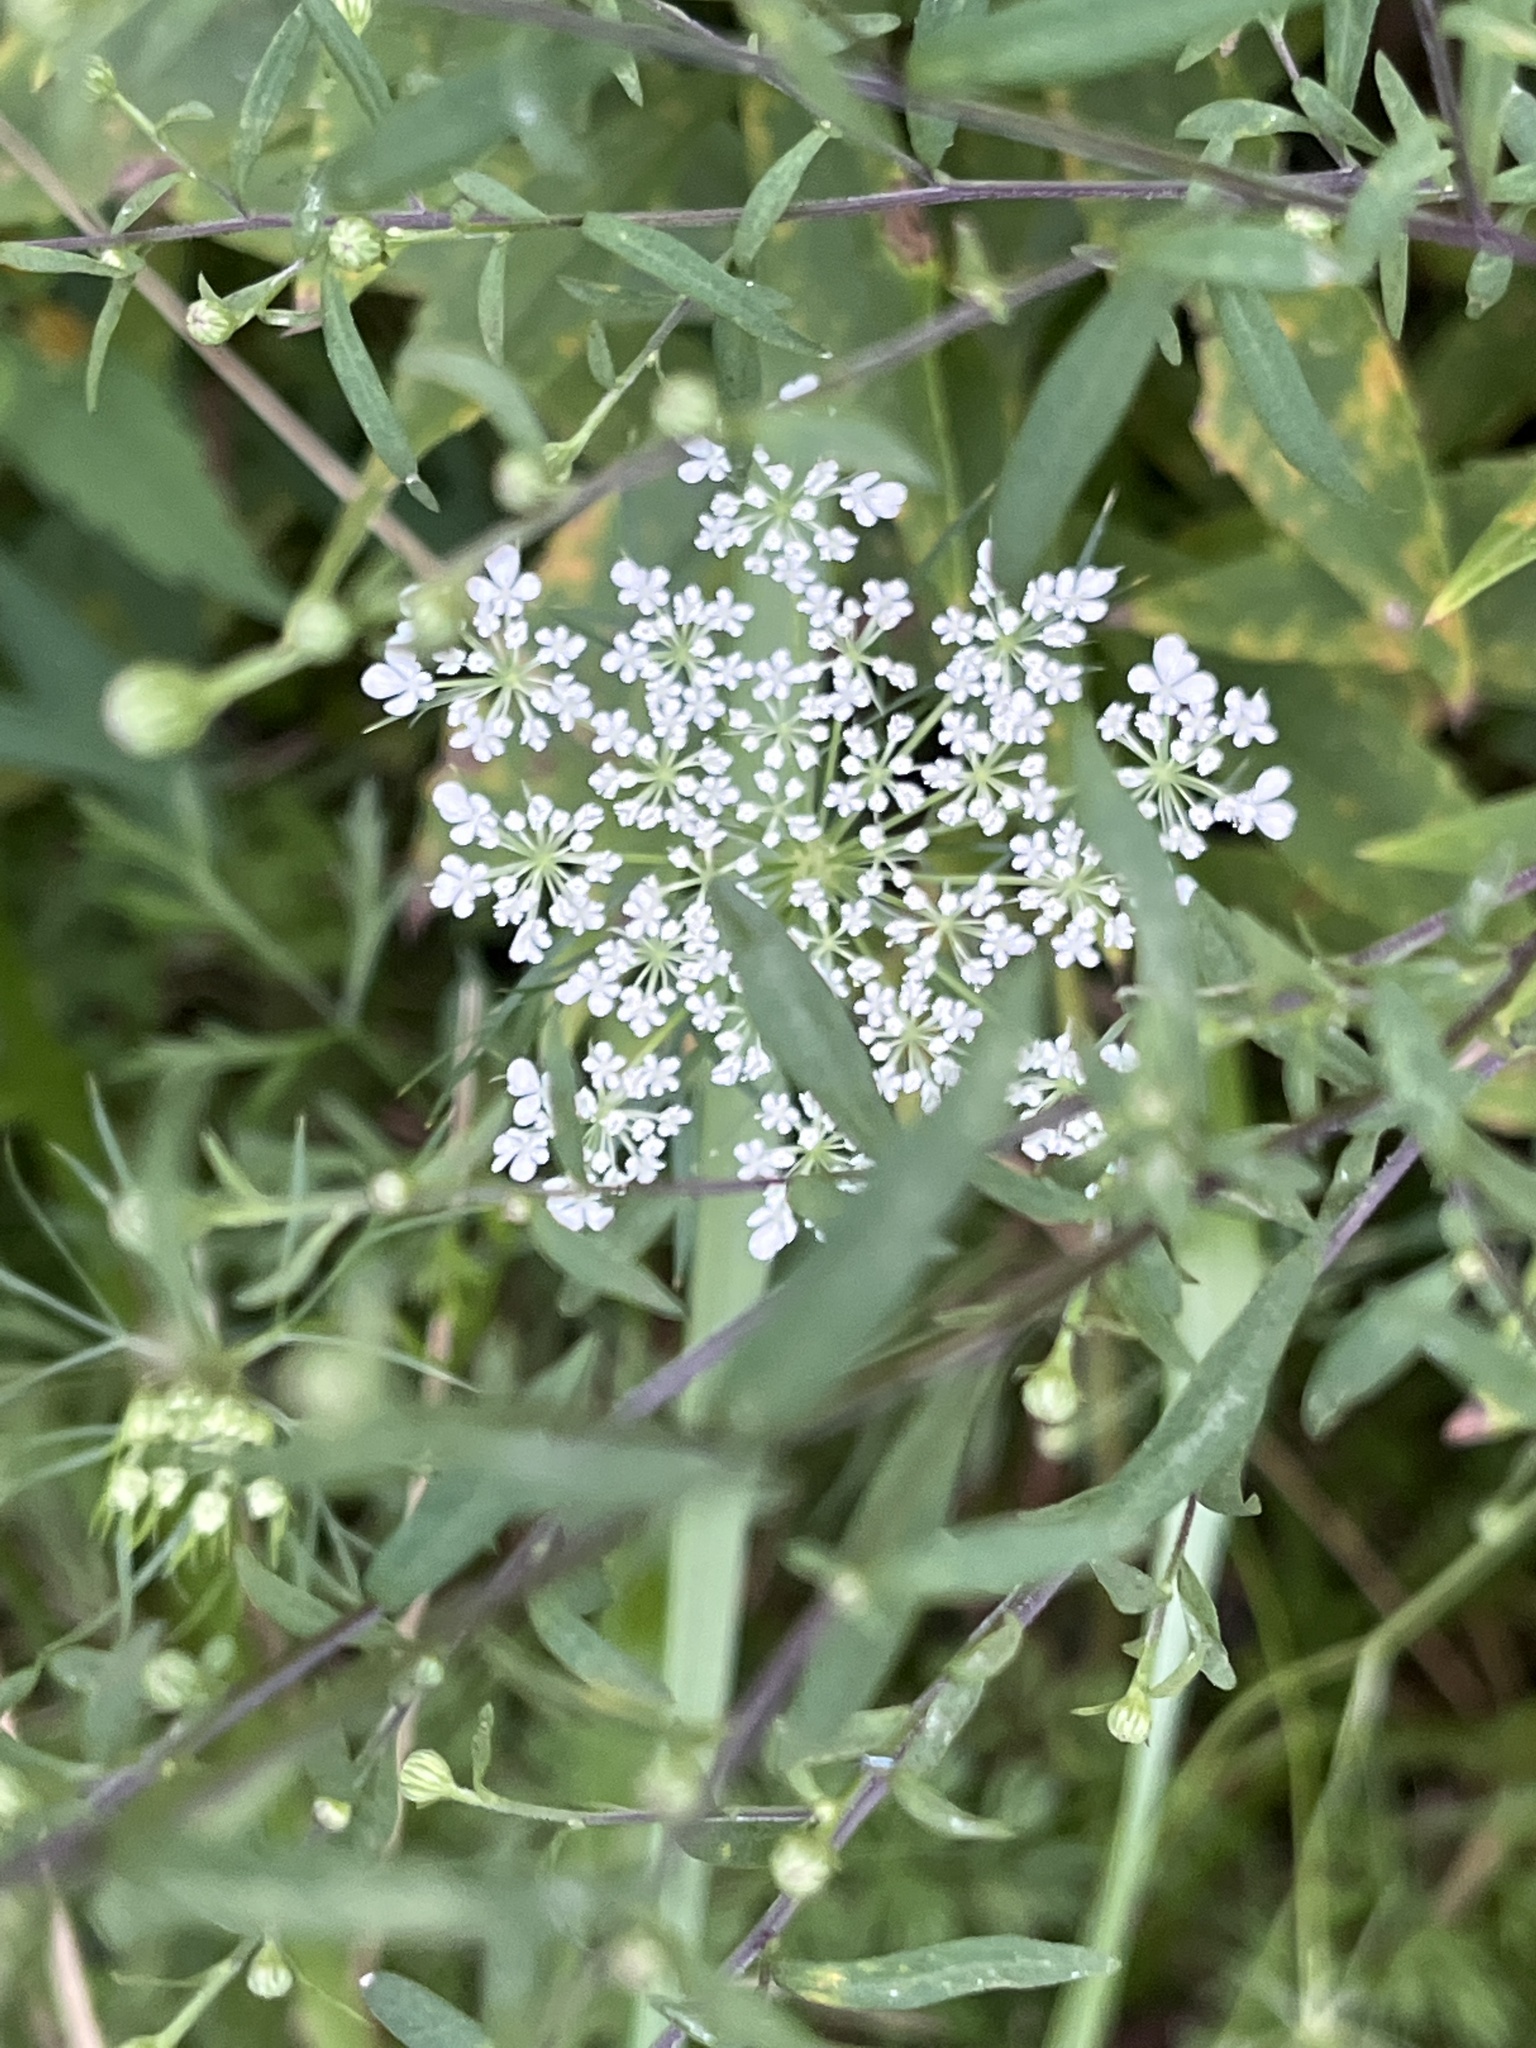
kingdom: Plantae
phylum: Tracheophyta
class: Magnoliopsida
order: Apiales
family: Apiaceae
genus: Daucus
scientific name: Daucus carota
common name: Wild carrot
